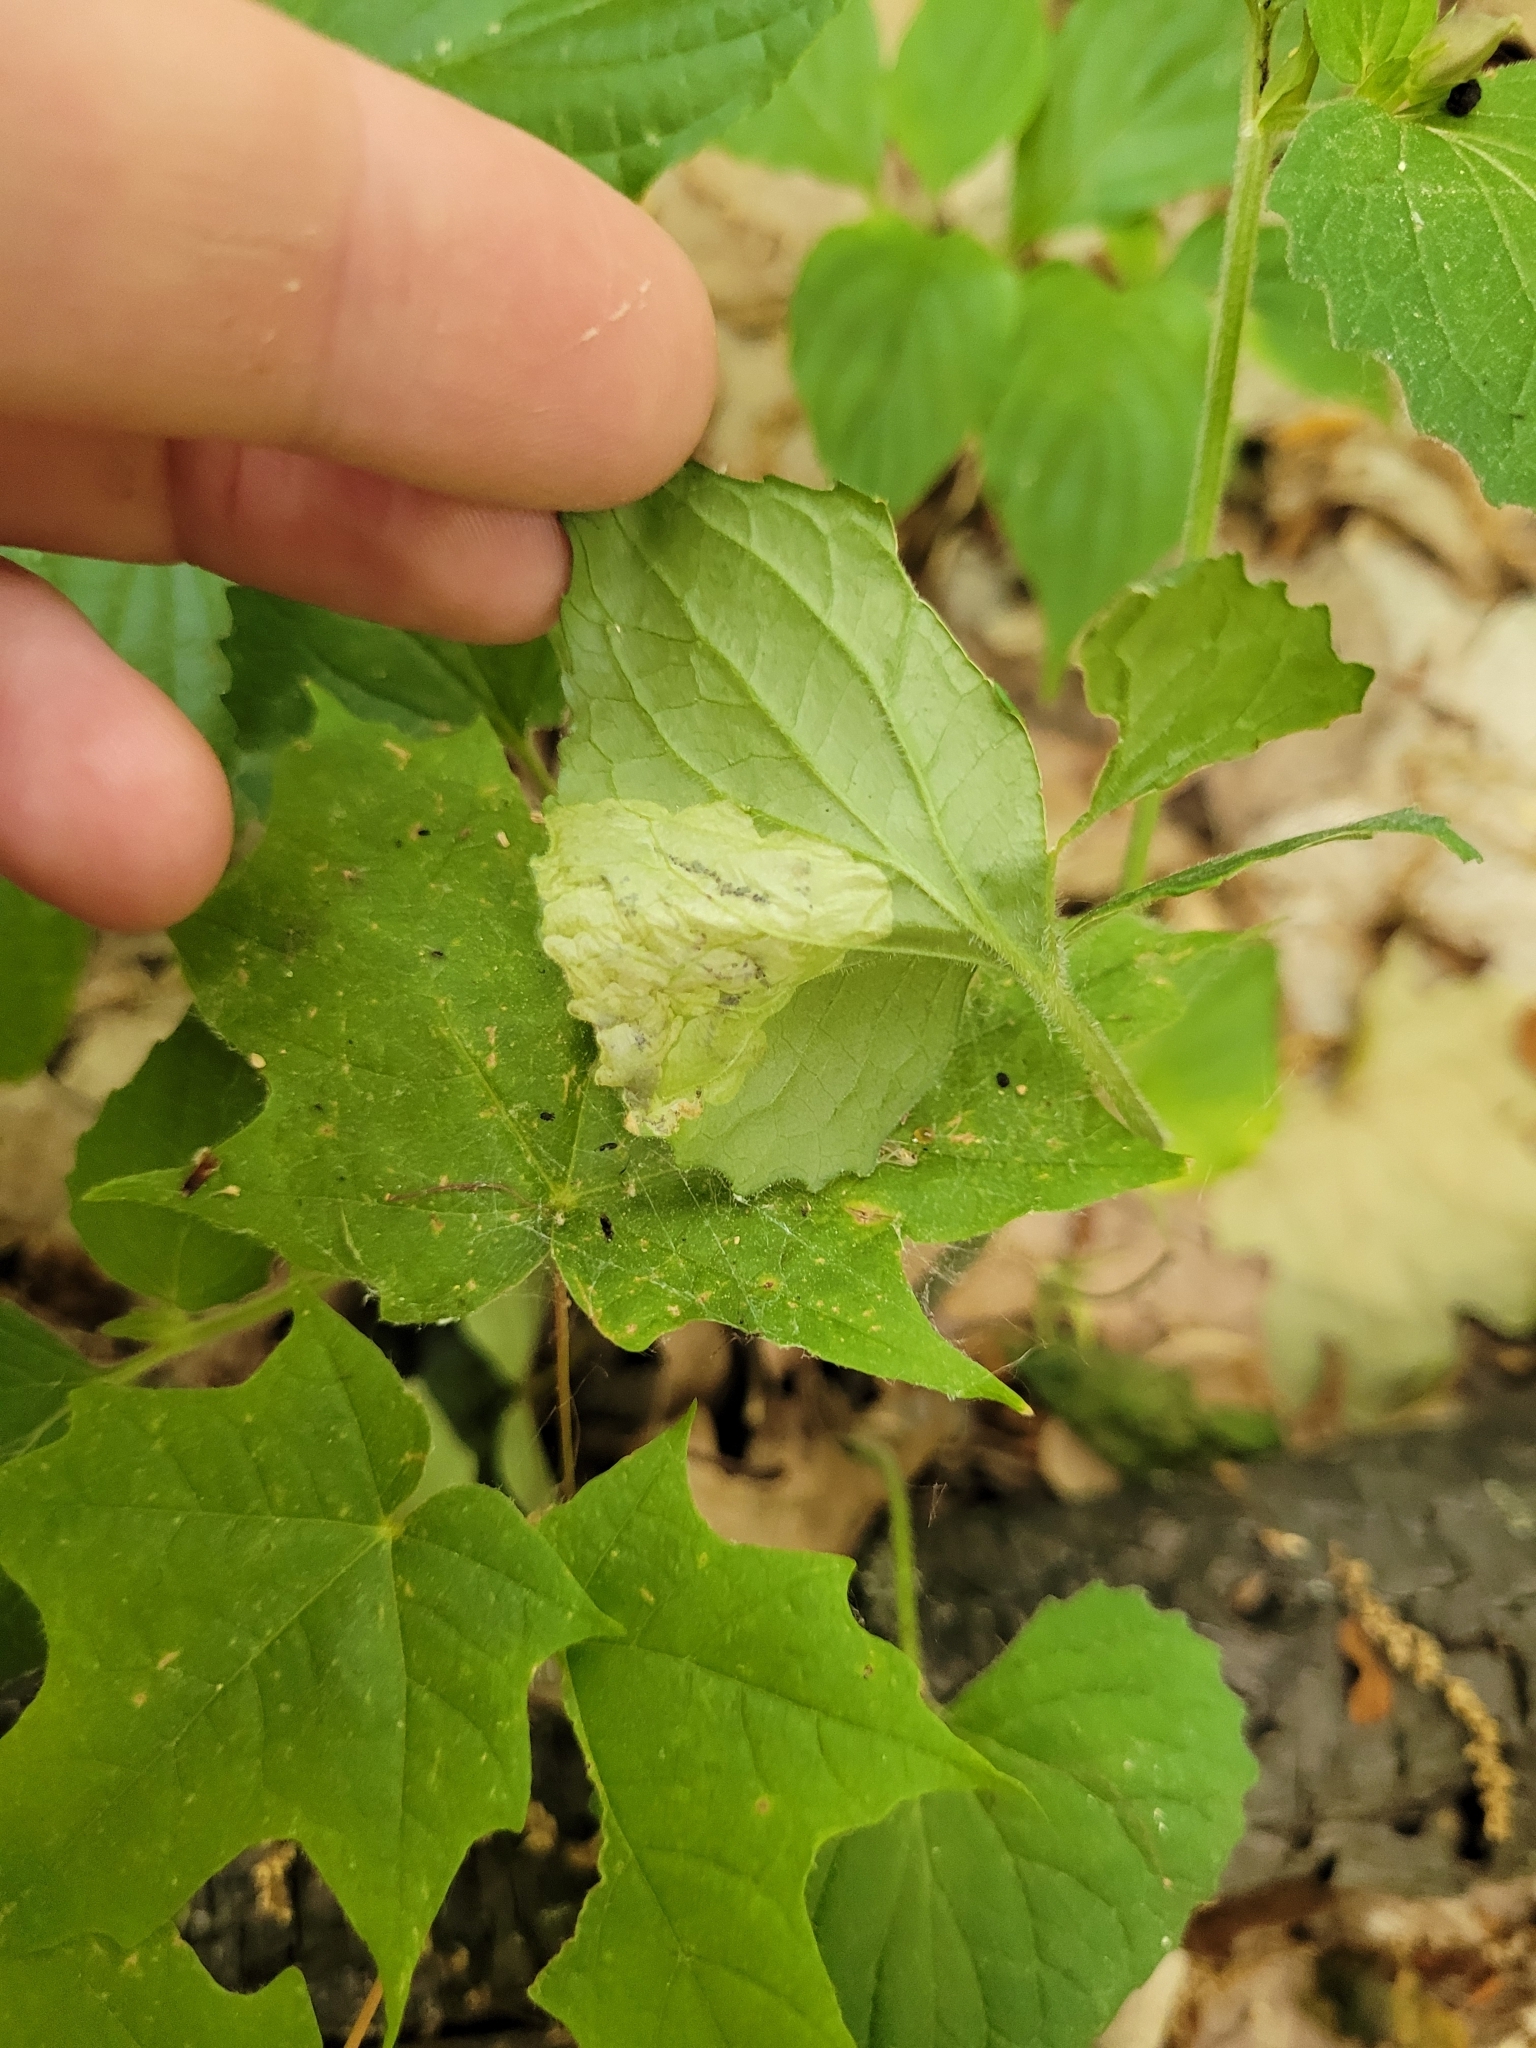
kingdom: Animalia
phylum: Arthropoda
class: Insecta
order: Hymenoptera
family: Tenthredinidae
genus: Nefusa
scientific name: Nefusa ambigua
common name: Violet leafmining sawfly
